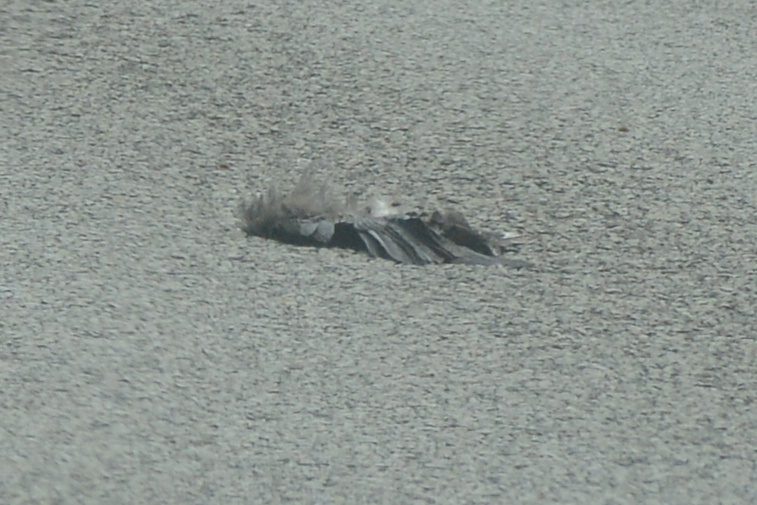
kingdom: Animalia
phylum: Chordata
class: Aves
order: Passeriformes
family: Corvidae
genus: Corvus
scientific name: Corvus tasmanicus
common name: Forest raven
